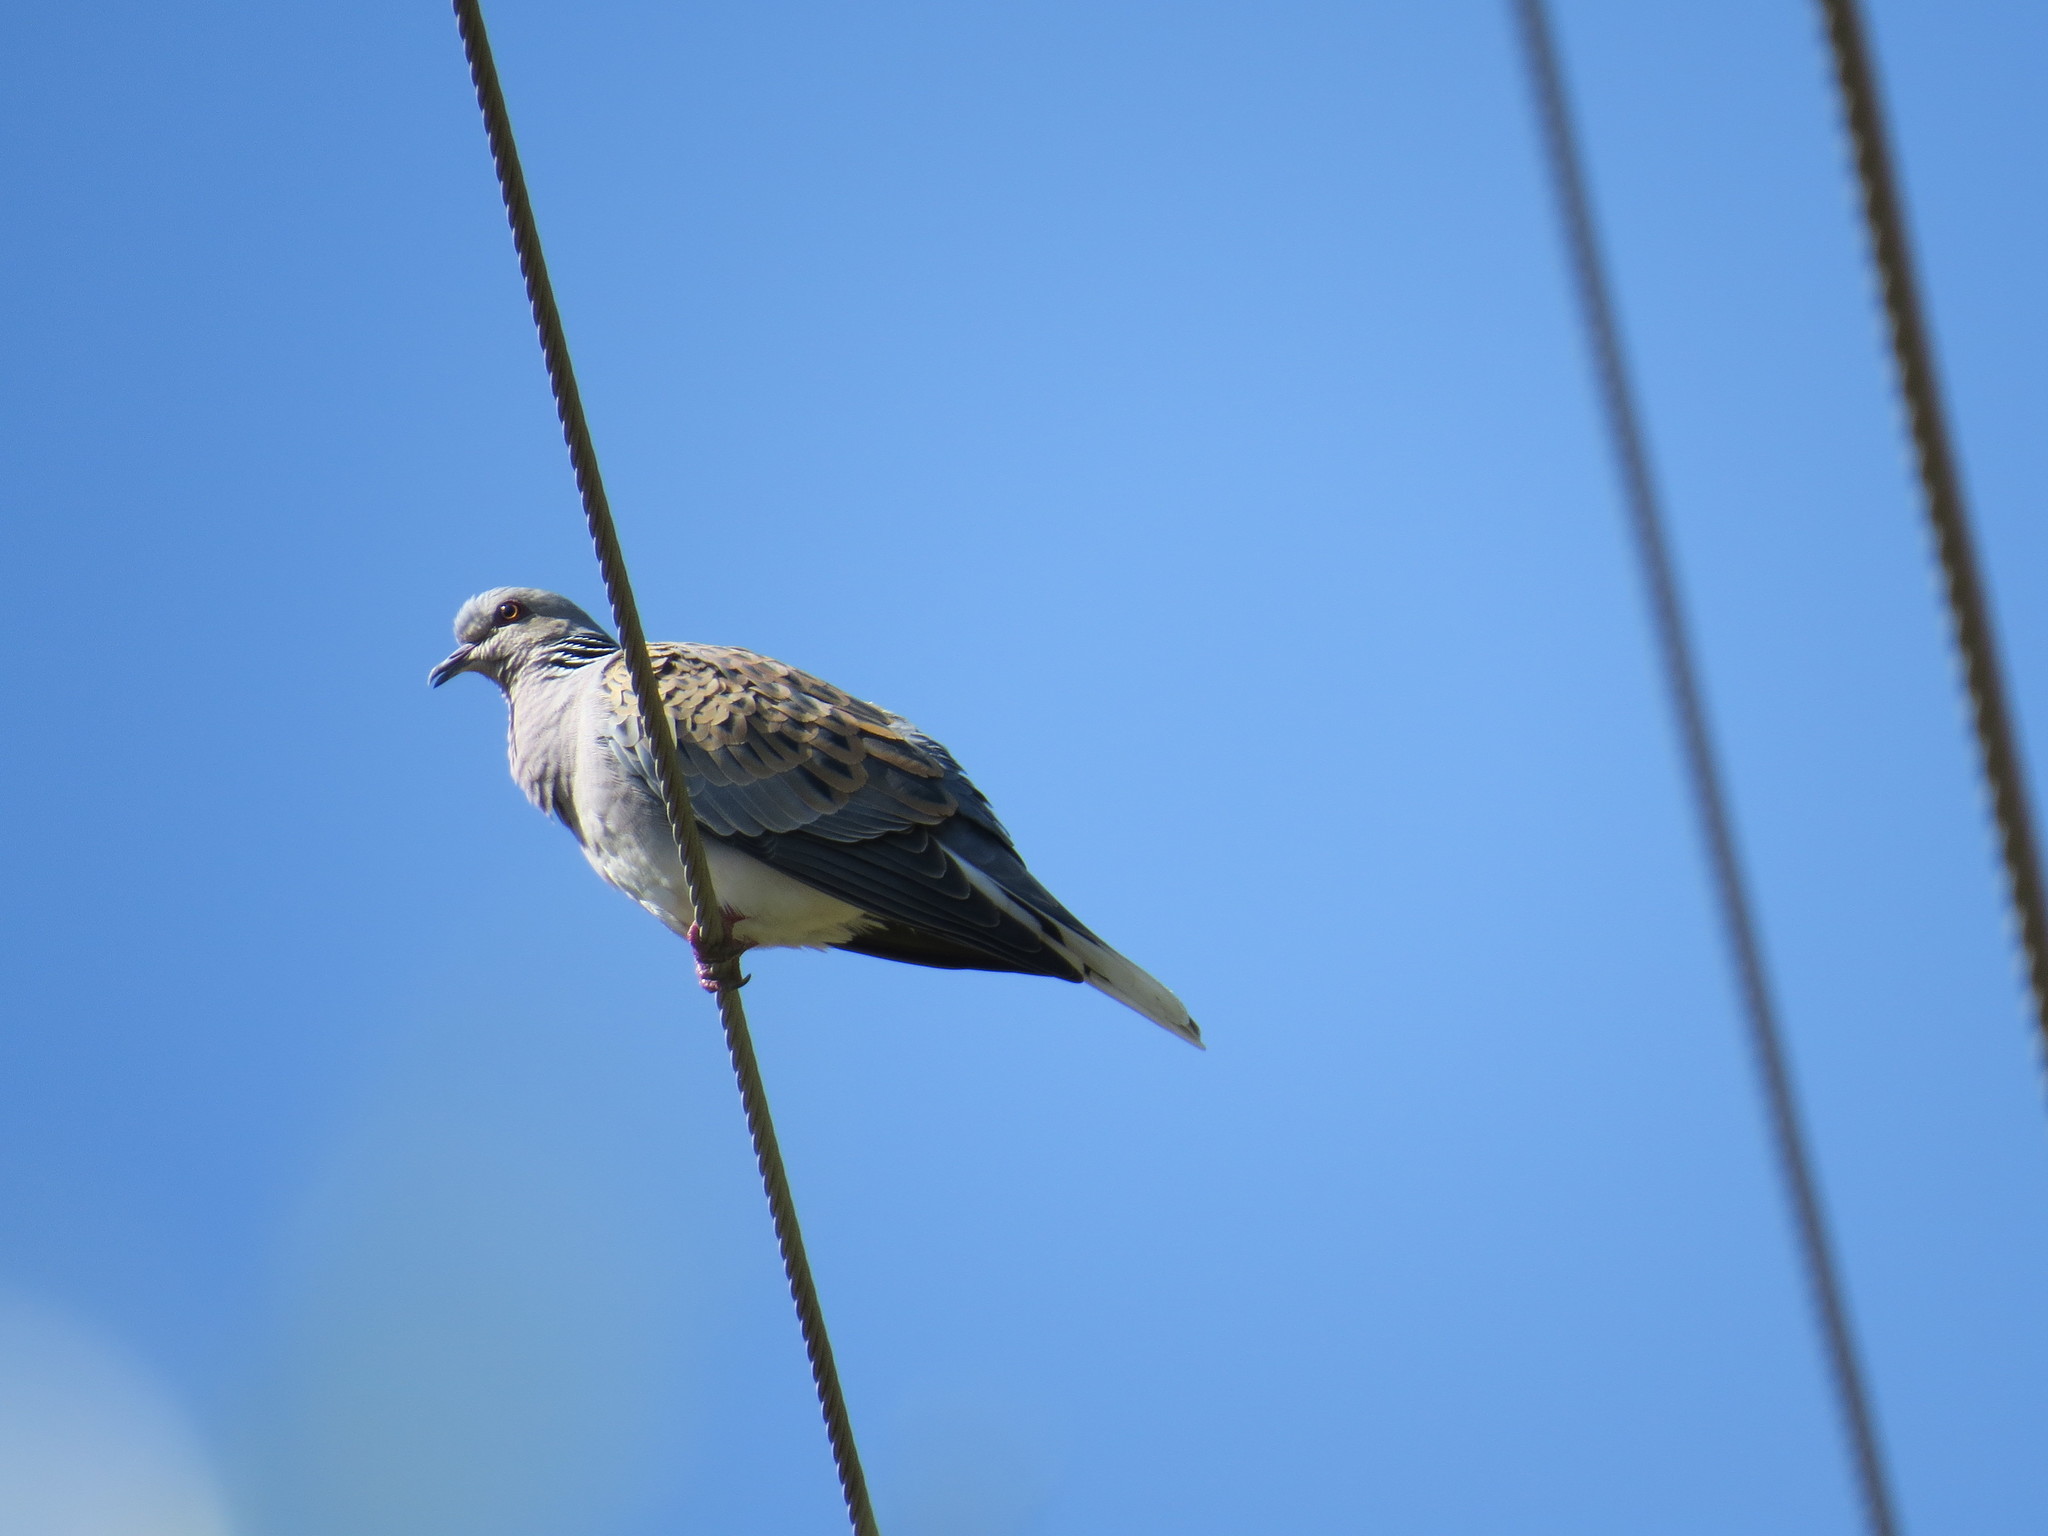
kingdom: Animalia
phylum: Chordata
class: Aves
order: Columbiformes
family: Columbidae
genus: Streptopelia
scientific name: Streptopelia turtur
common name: European turtle dove
